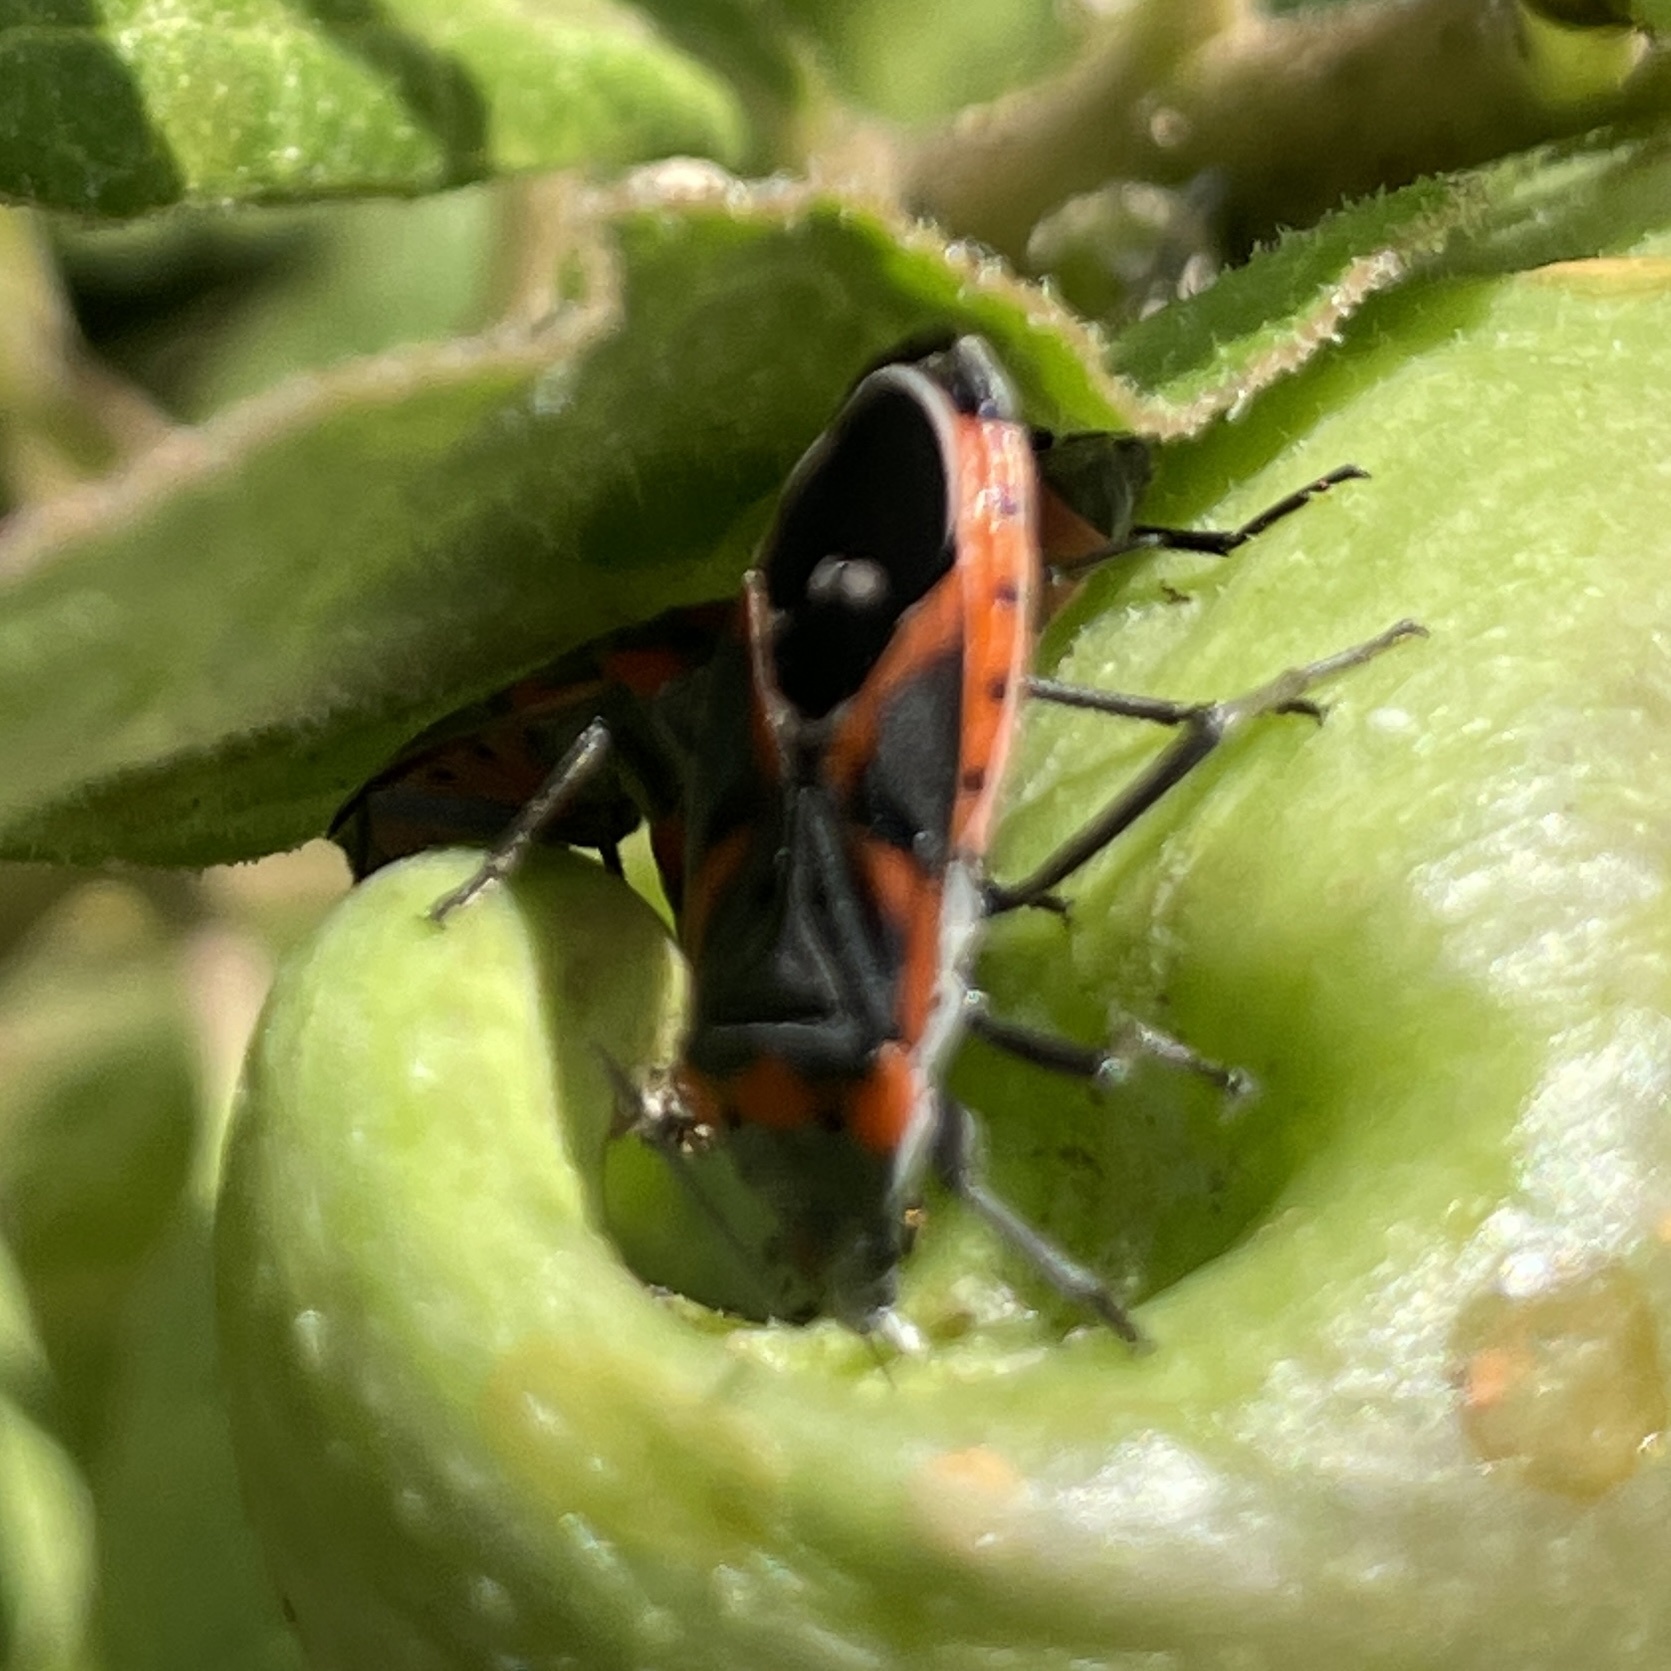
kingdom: Animalia
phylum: Arthropoda
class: Insecta
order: Hemiptera
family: Lygaeidae
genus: Lygaeus
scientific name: Lygaeus kalmii
